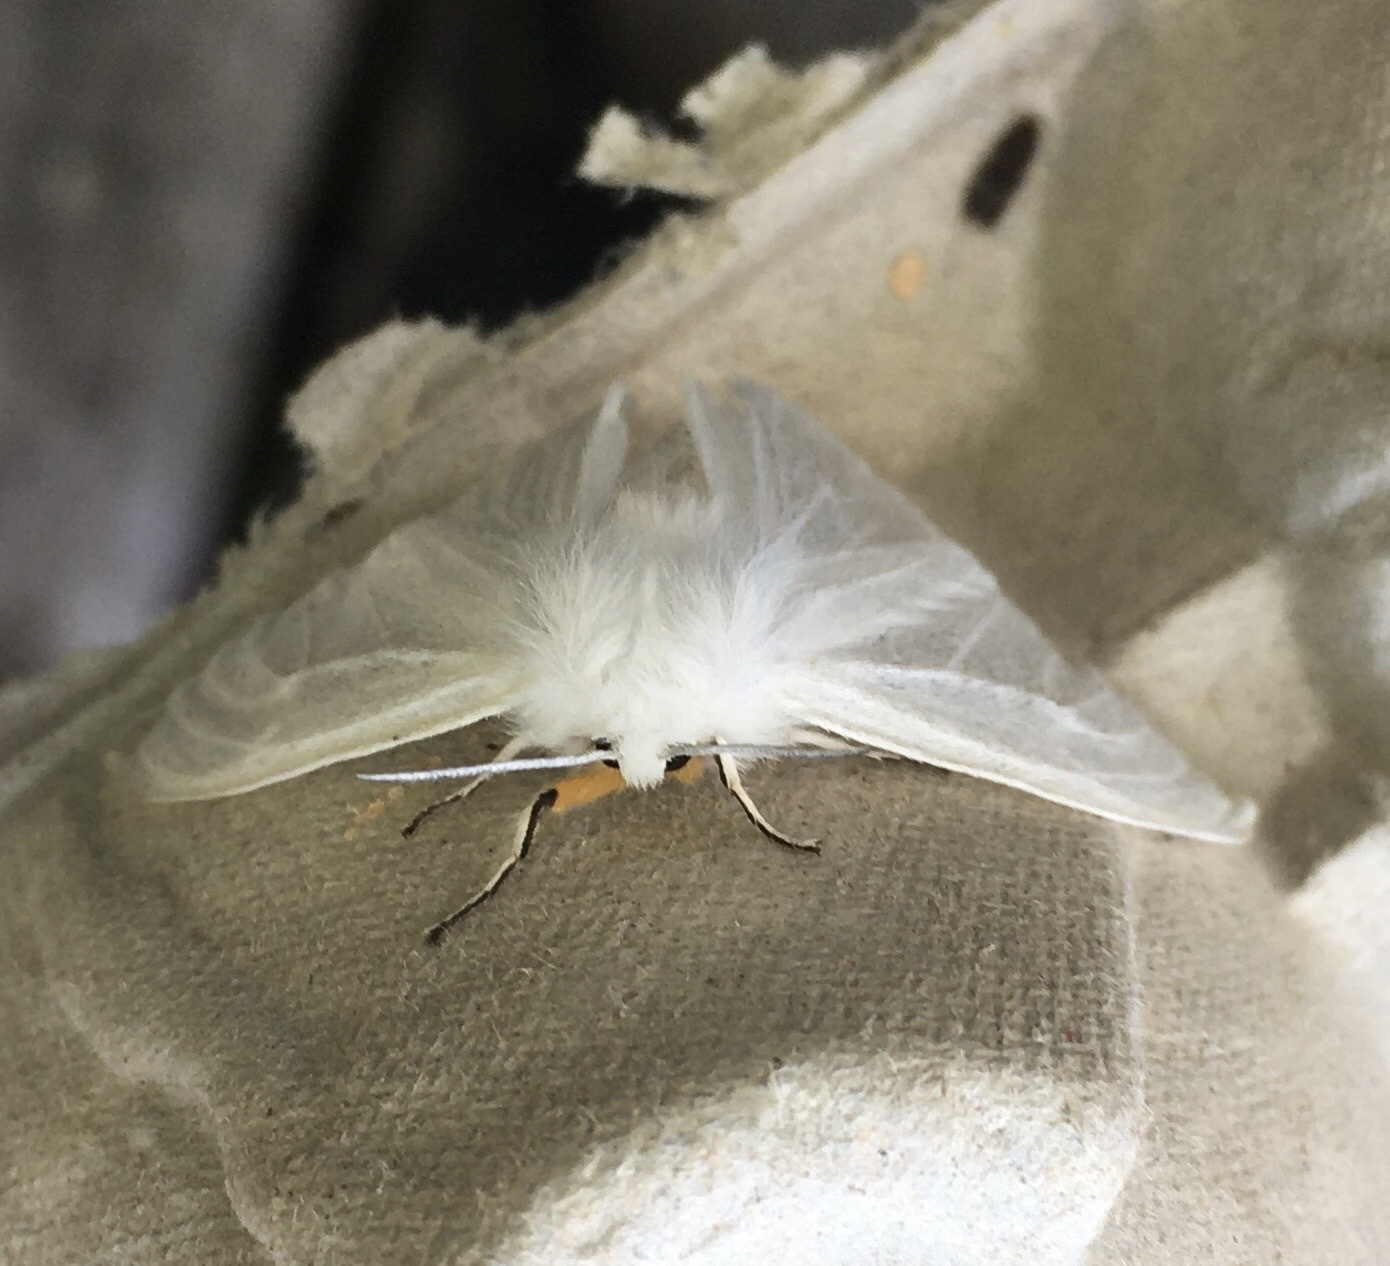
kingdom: Animalia
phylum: Arthropoda
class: Insecta
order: Lepidoptera
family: Erebidae
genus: Spilosoma
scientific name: Spilosoma congrua
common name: Agreeable tiger moth
